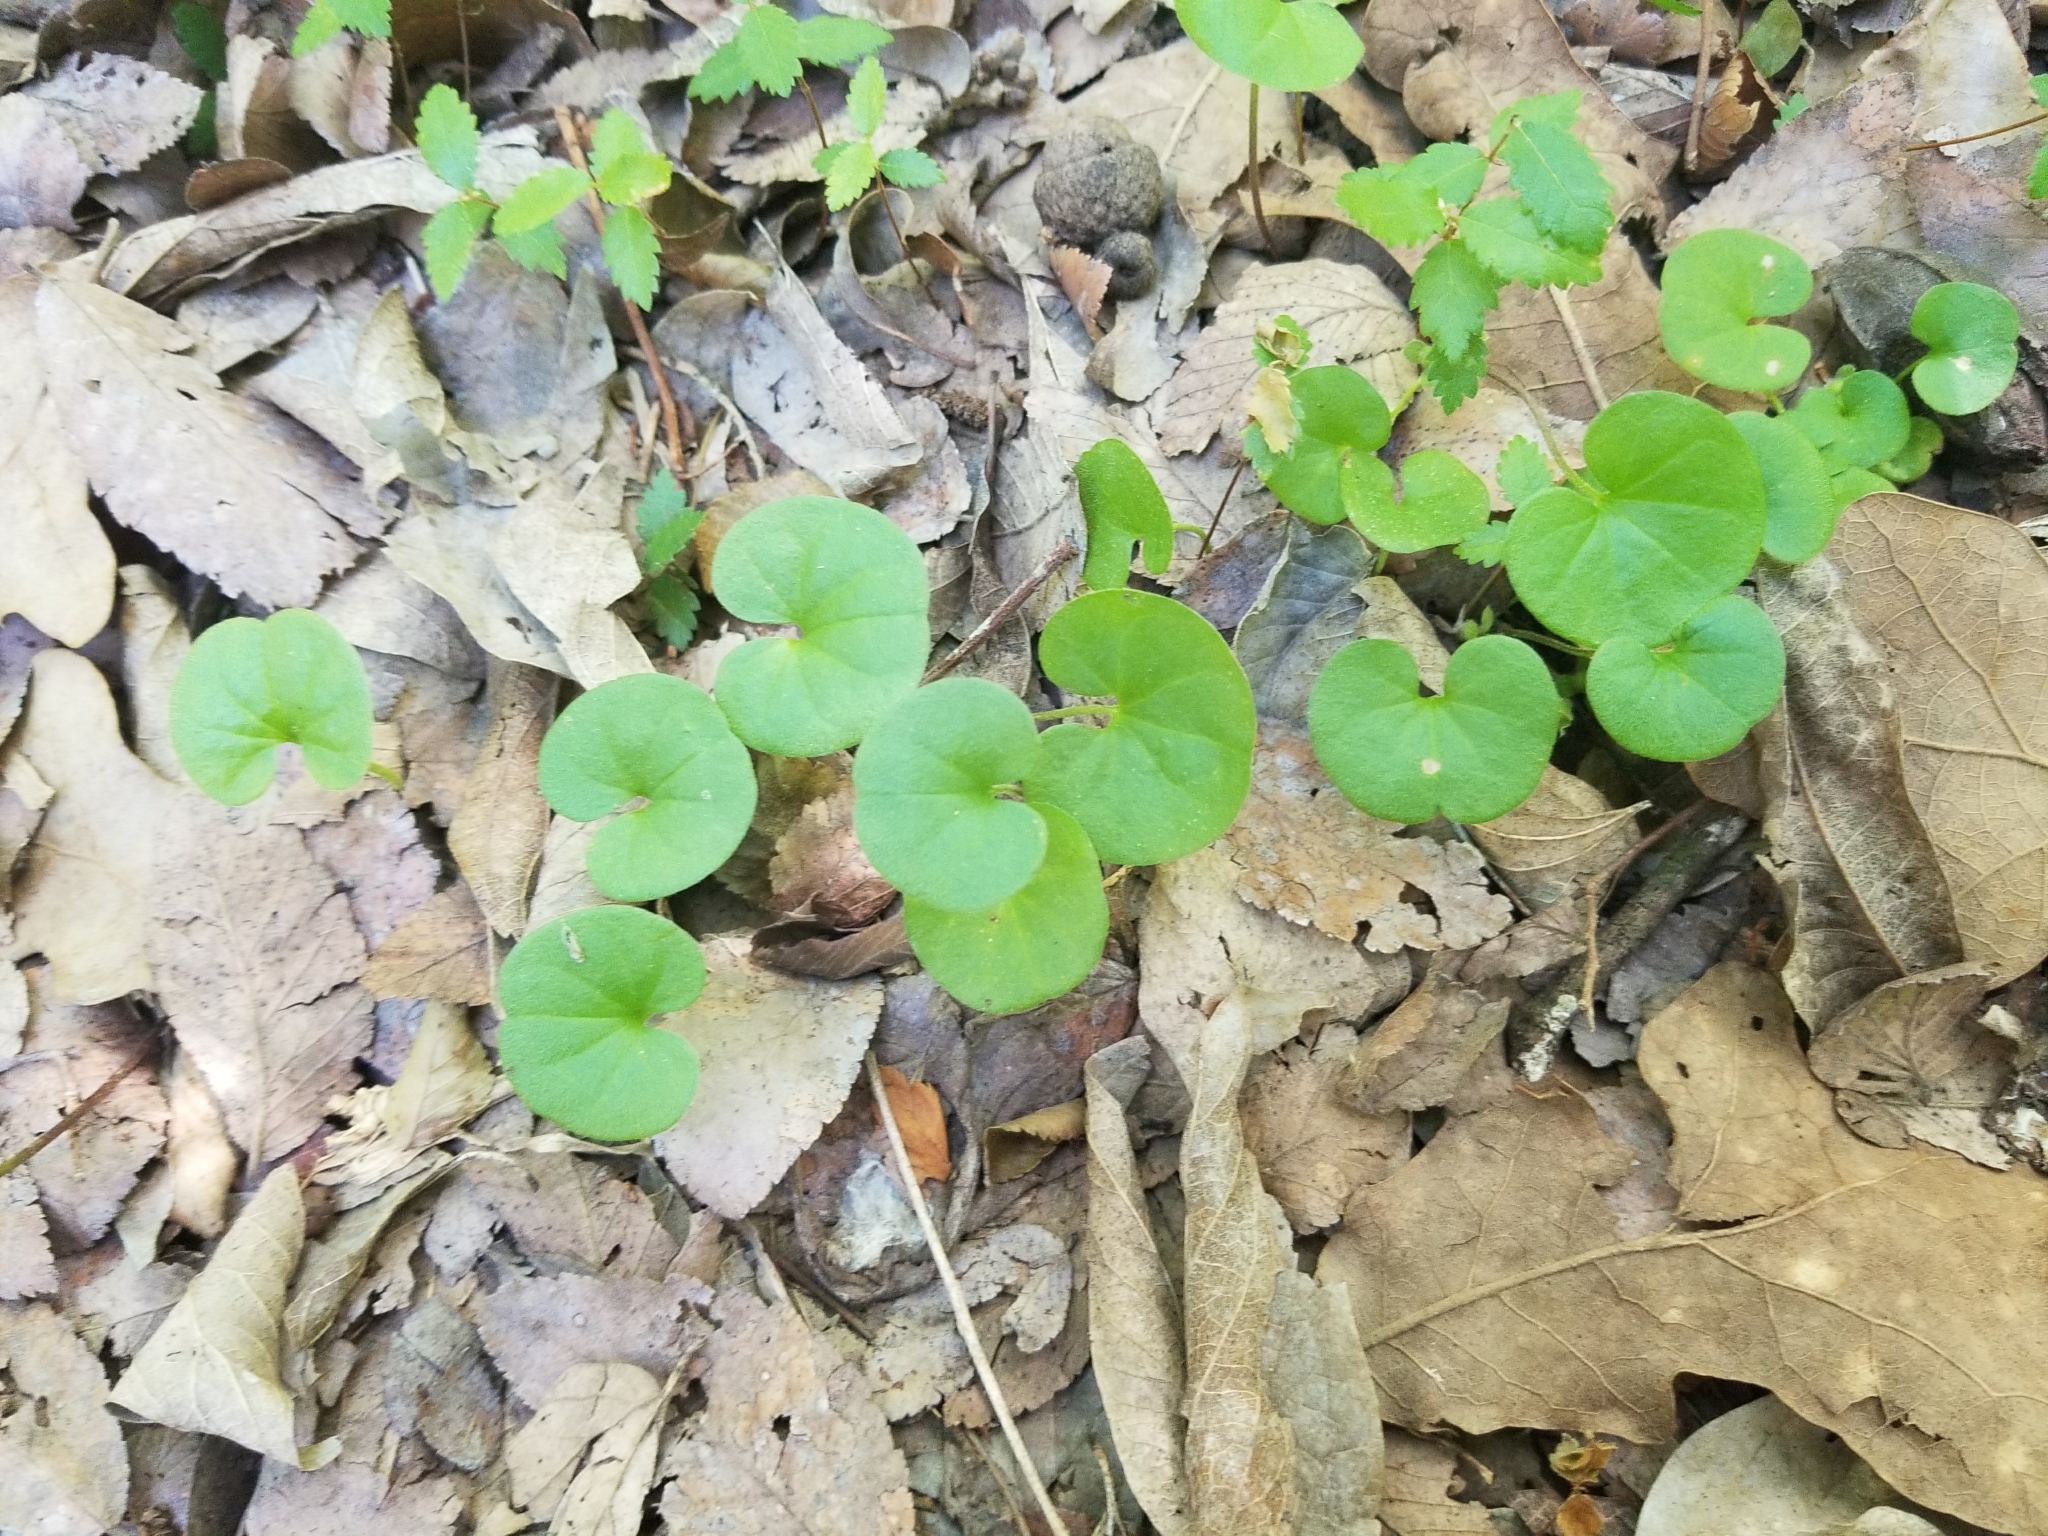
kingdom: Plantae
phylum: Tracheophyta
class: Magnoliopsida
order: Solanales
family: Convolvulaceae
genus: Dichondra
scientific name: Dichondra carolinensis
